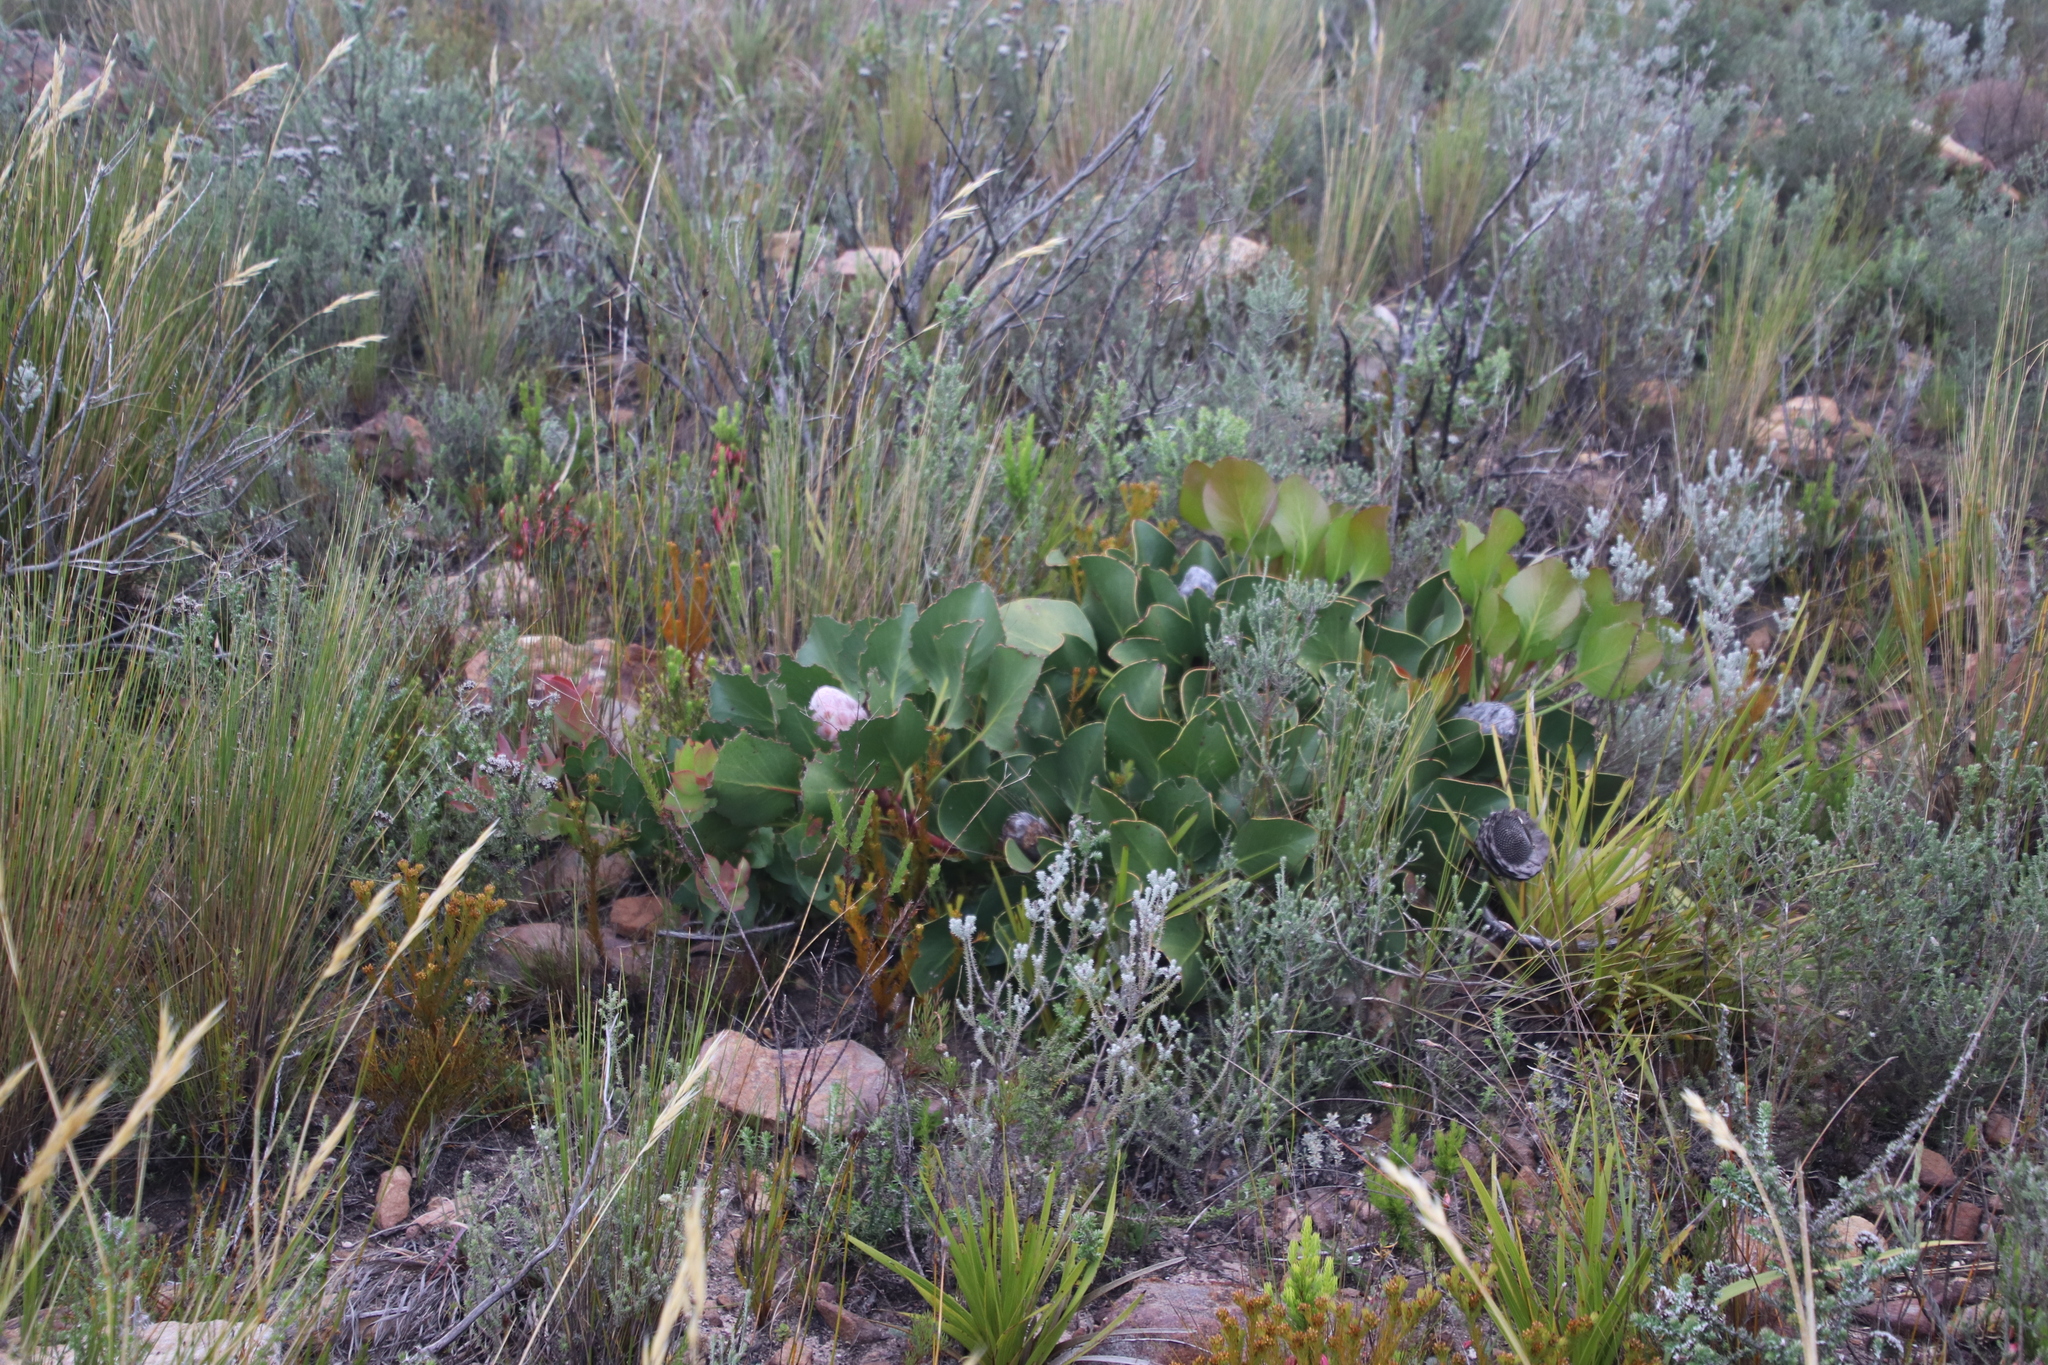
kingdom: Plantae
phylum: Tracheophyta
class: Magnoliopsida
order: Proteales
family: Proteaceae
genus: Protea
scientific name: Protea cynaroides
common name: King protea
